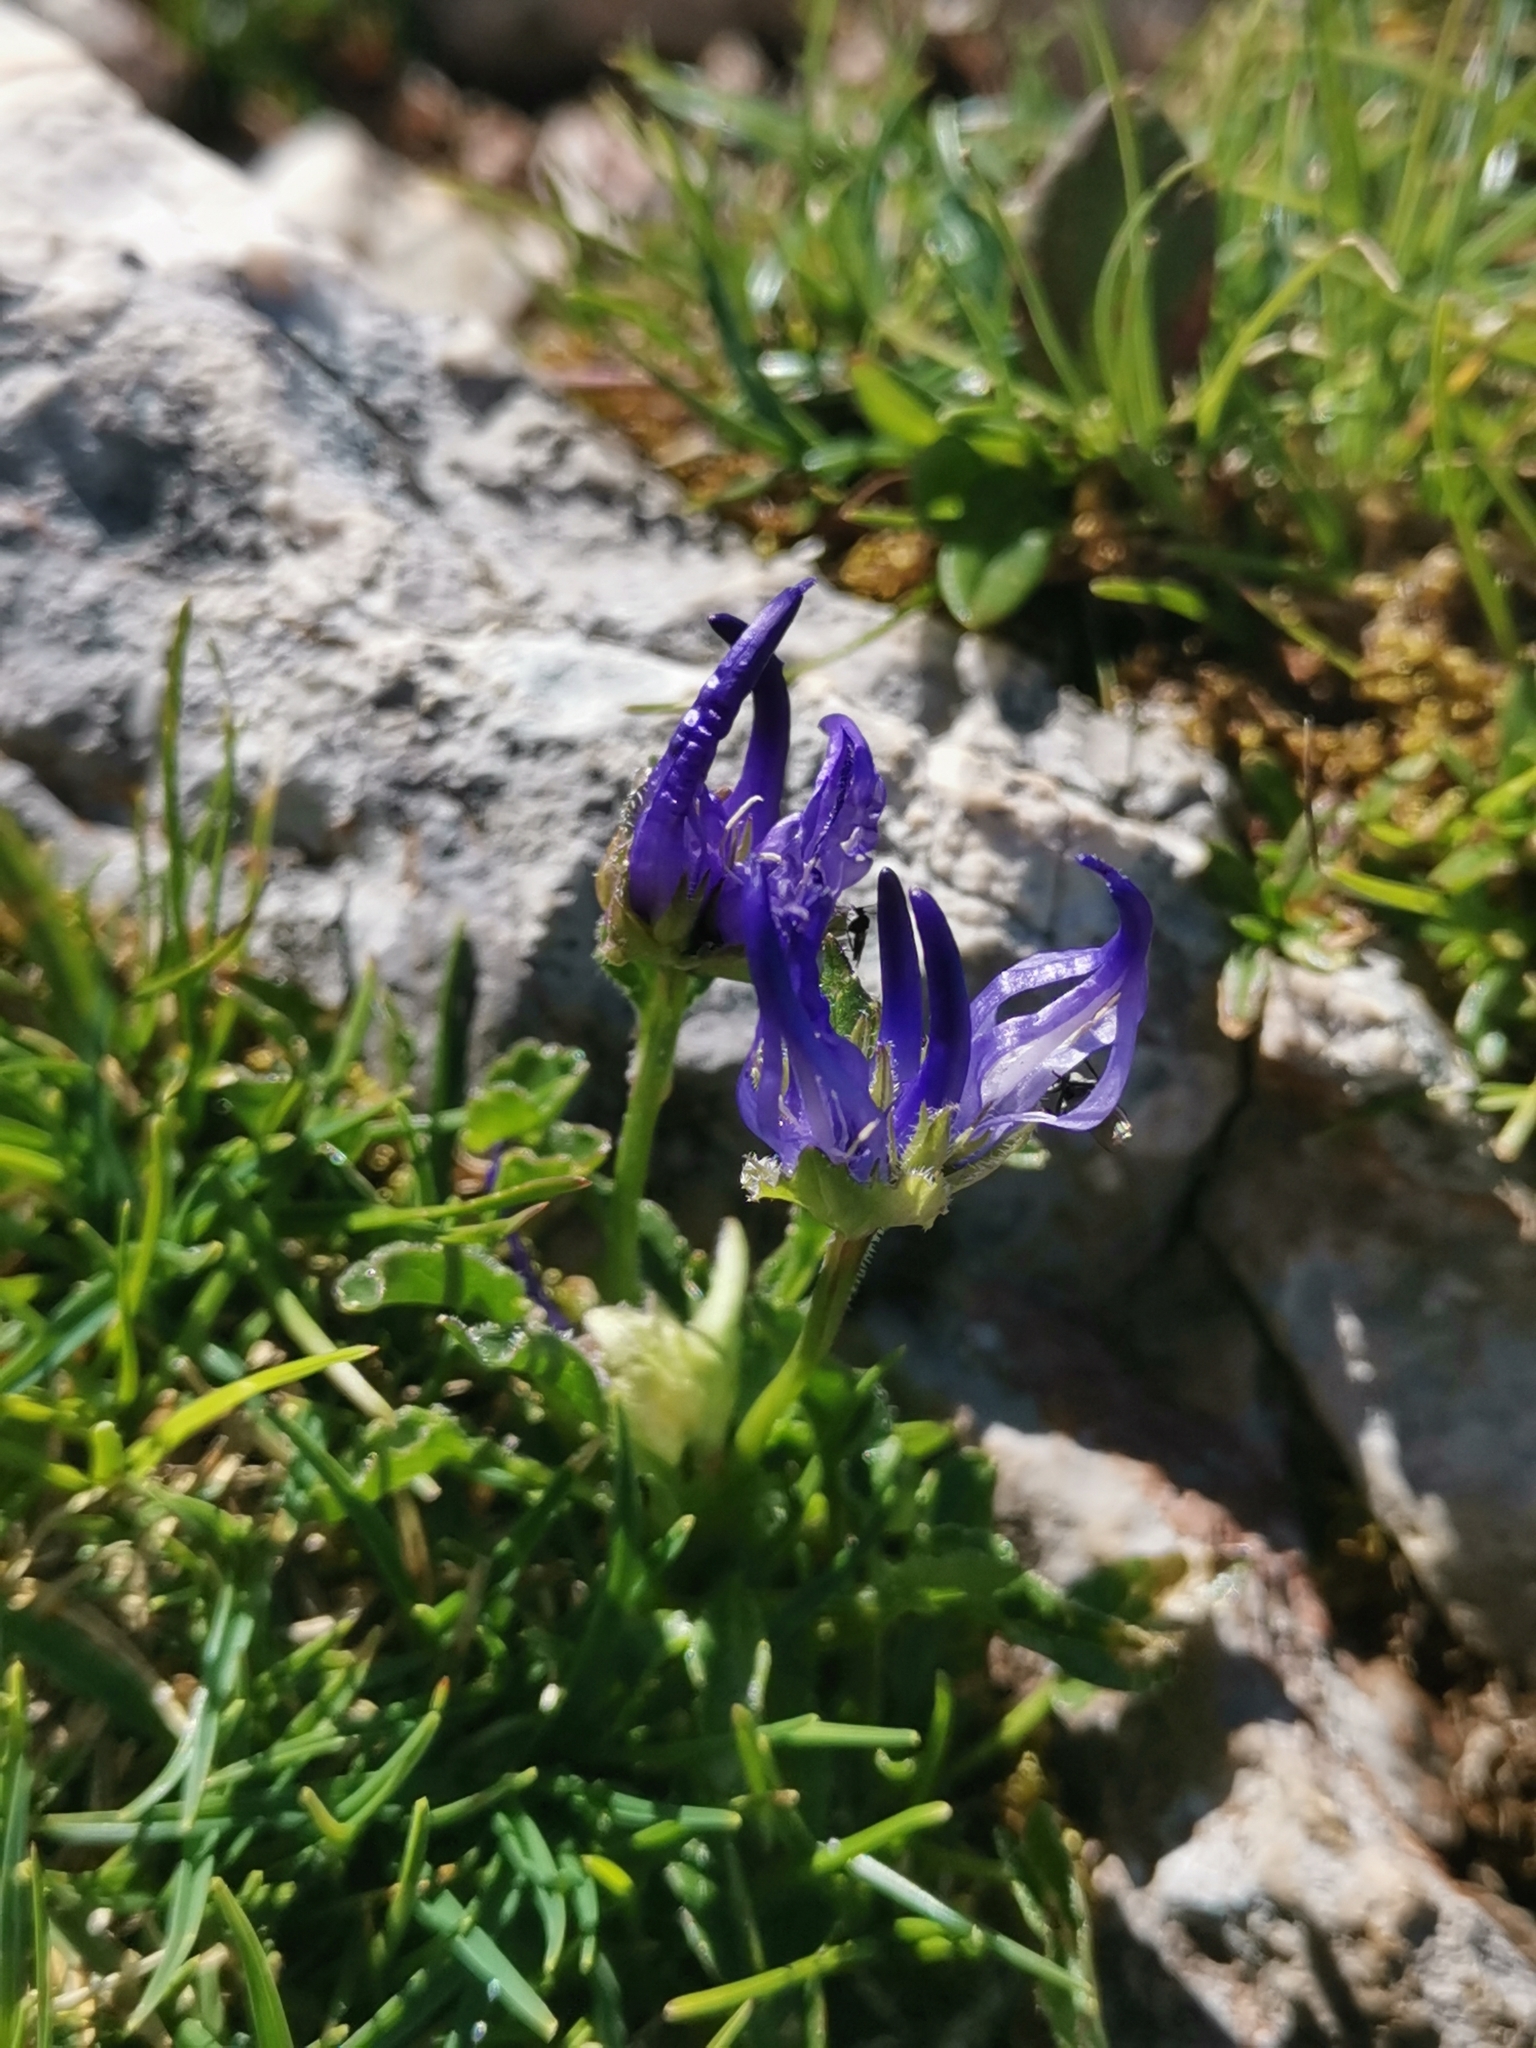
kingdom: Plantae
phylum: Tracheophyta
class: Magnoliopsida
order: Asterales
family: Campanulaceae
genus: Phyteuma
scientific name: Phyteuma sieberi
